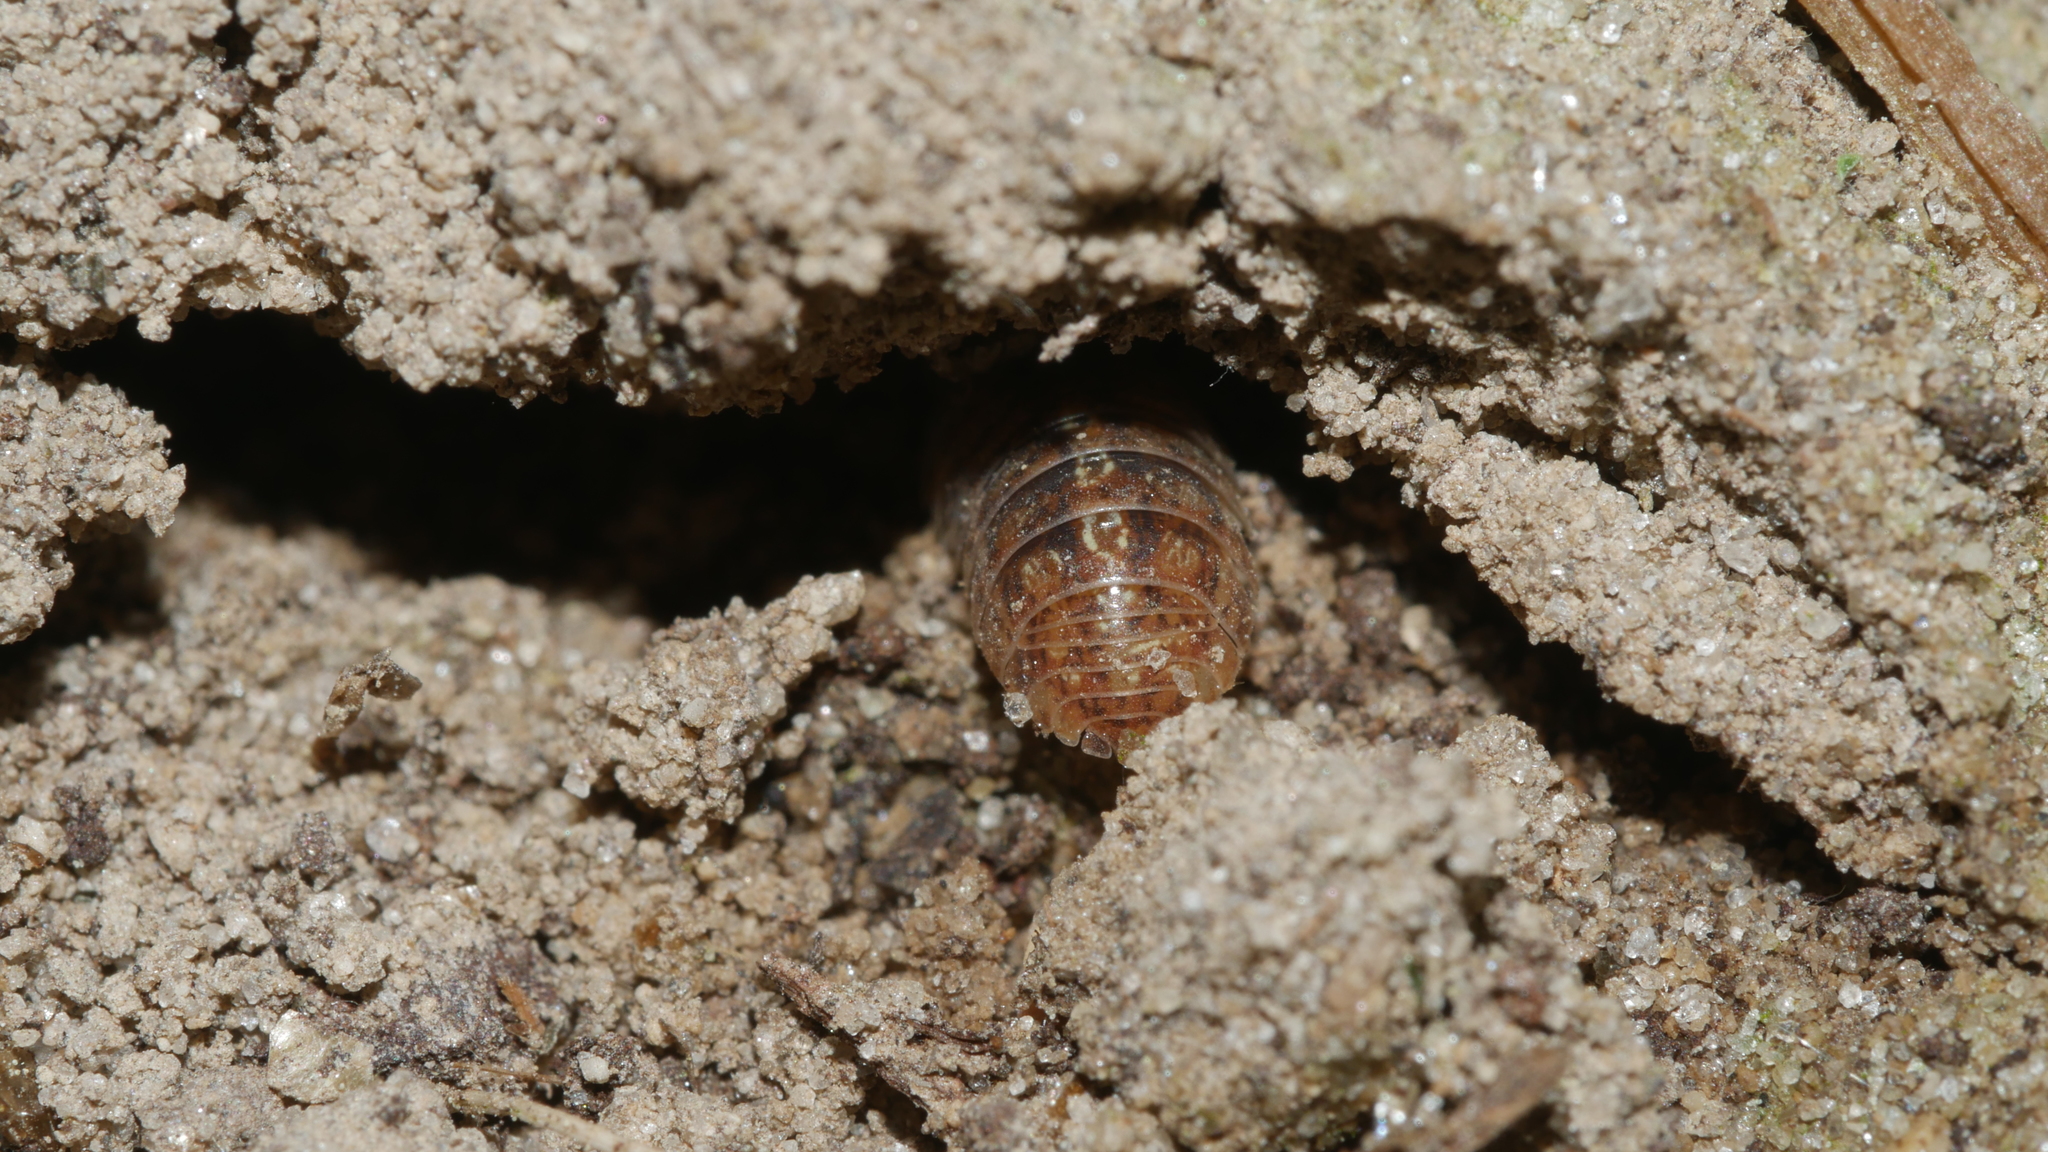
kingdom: Animalia
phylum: Arthropoda
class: Malacostraca
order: Isopoda
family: Armadillidiidae
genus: Armadillidium
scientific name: Armadillidium vulgare
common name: Common pill woodlouse
